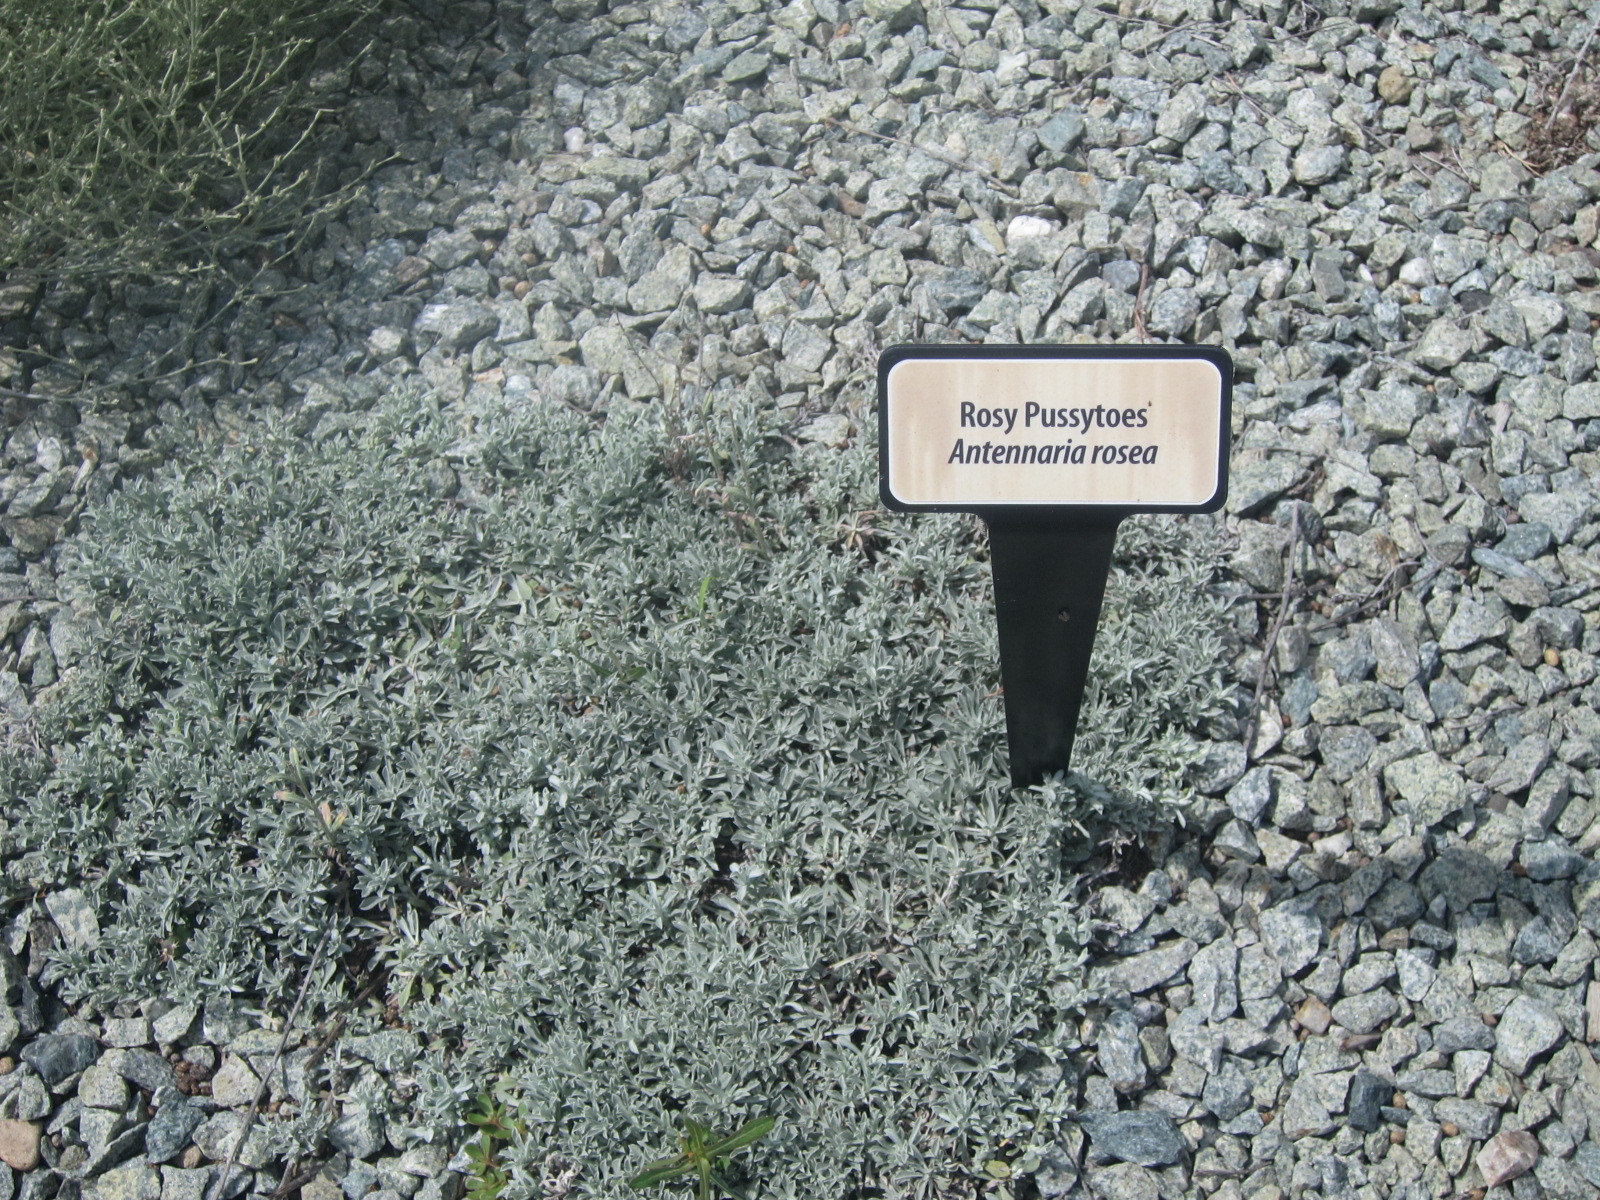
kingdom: Plantae
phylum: Tracheophyta
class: Magnoliopsida
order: Asterales
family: Asteraceae
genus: Antennaria
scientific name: Antennaria rosea
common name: Rosy pussytoes
